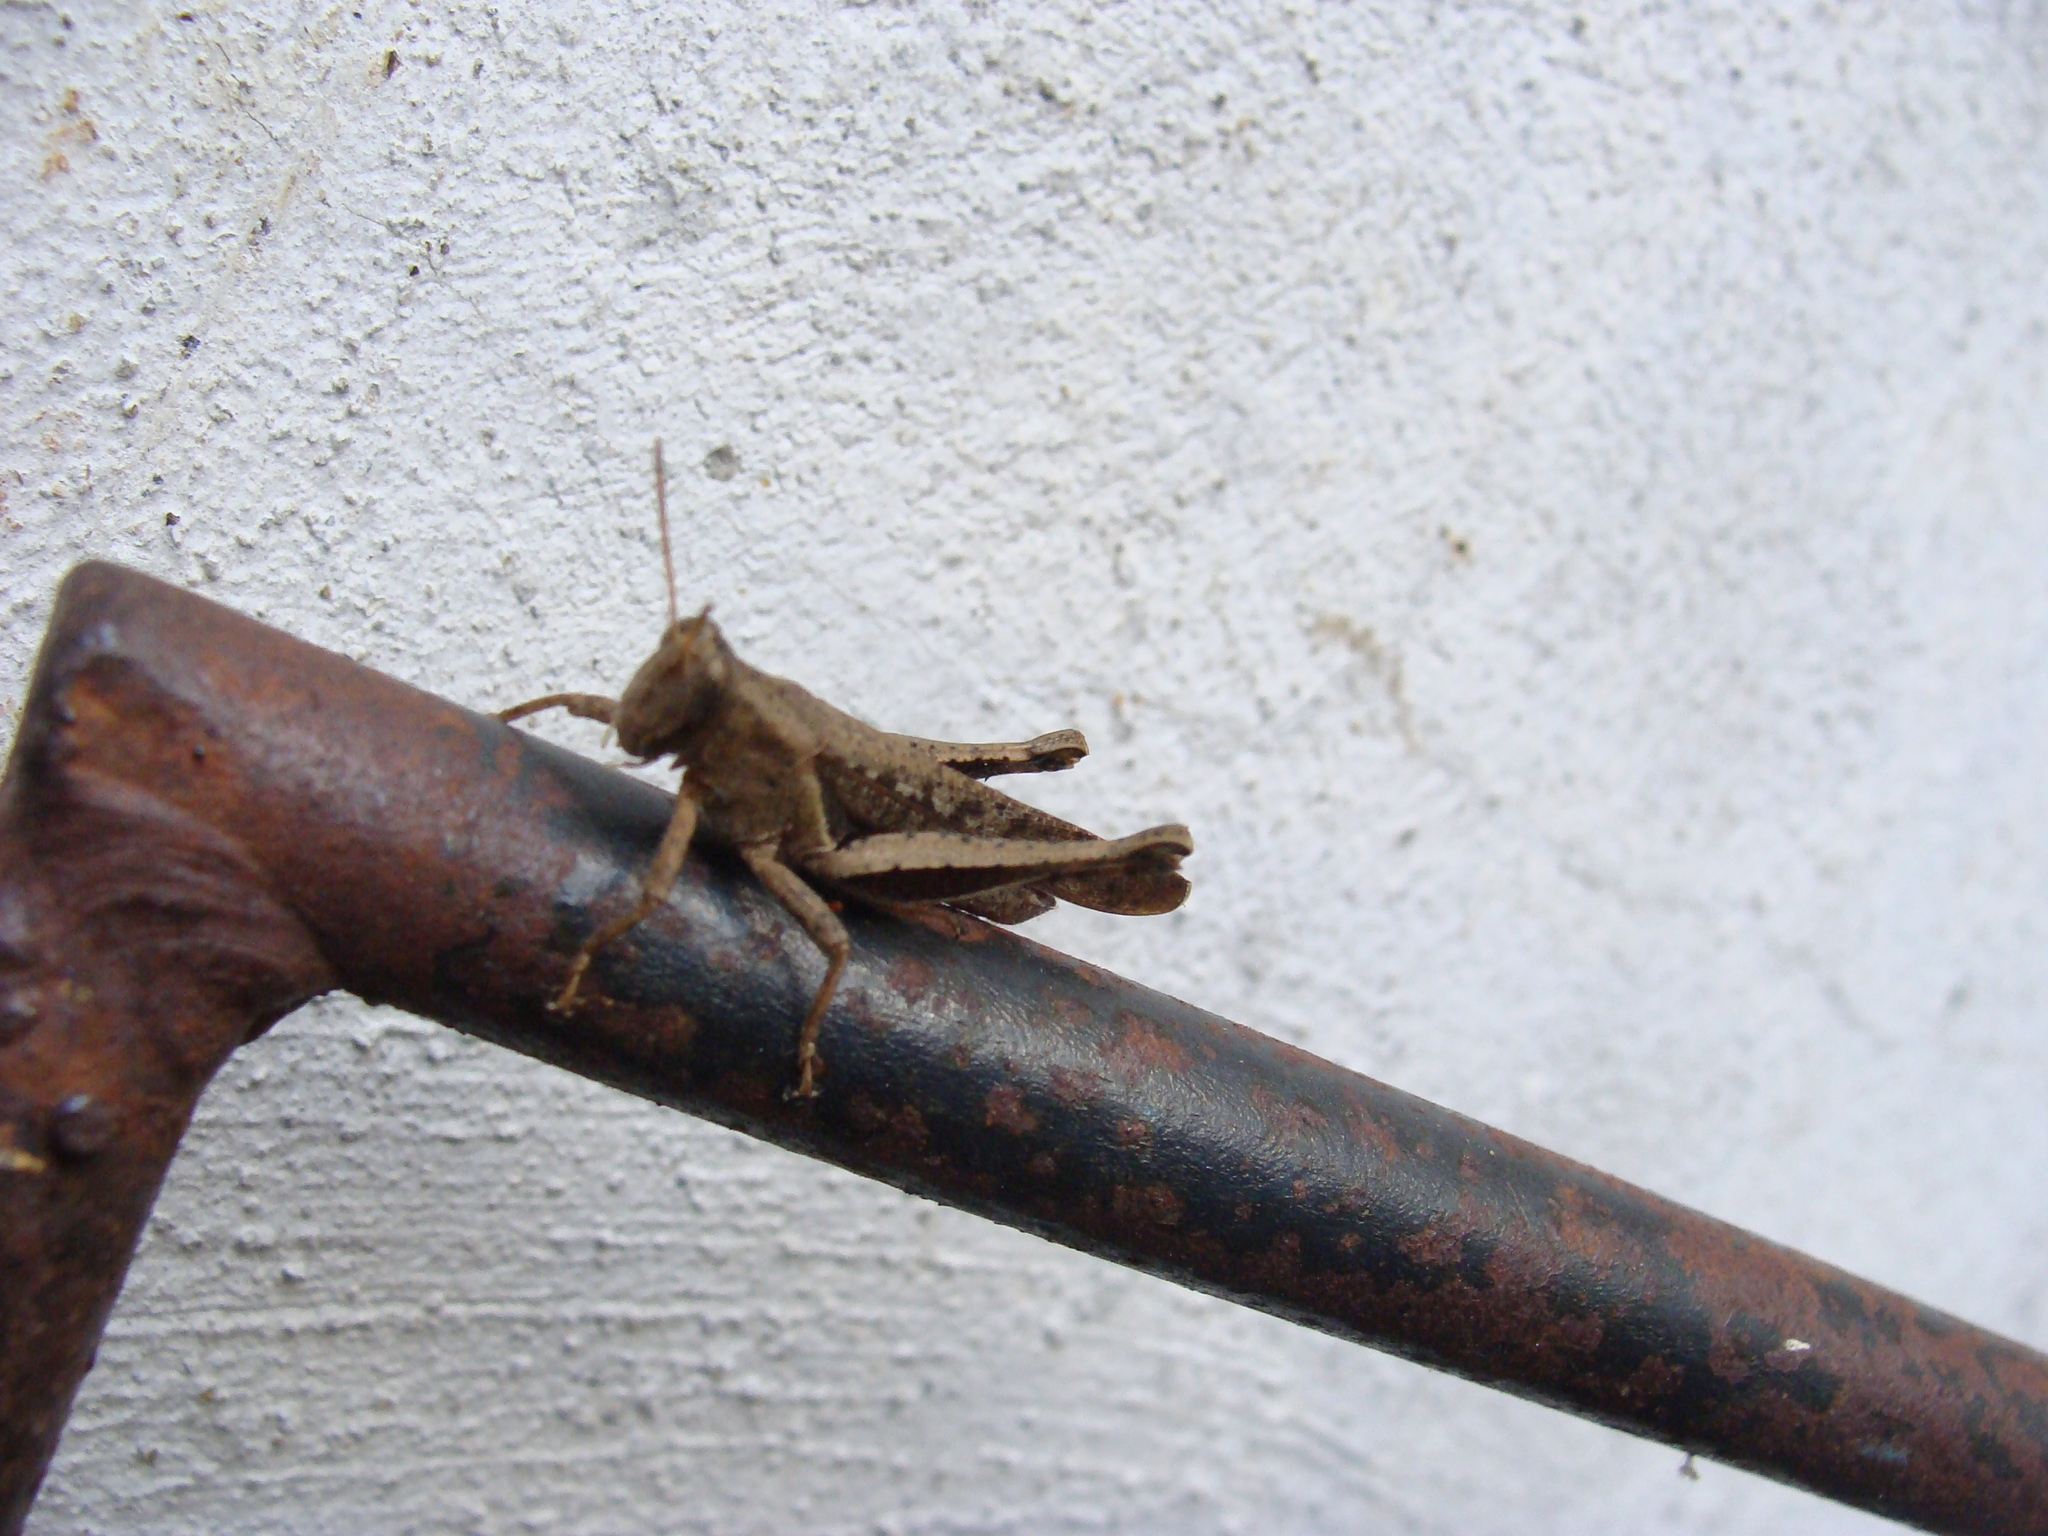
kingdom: Animalia
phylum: Arthropoda
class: Insecta
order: Orthoptera
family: Acrididae
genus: Abracris
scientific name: Abracris flavolineata
